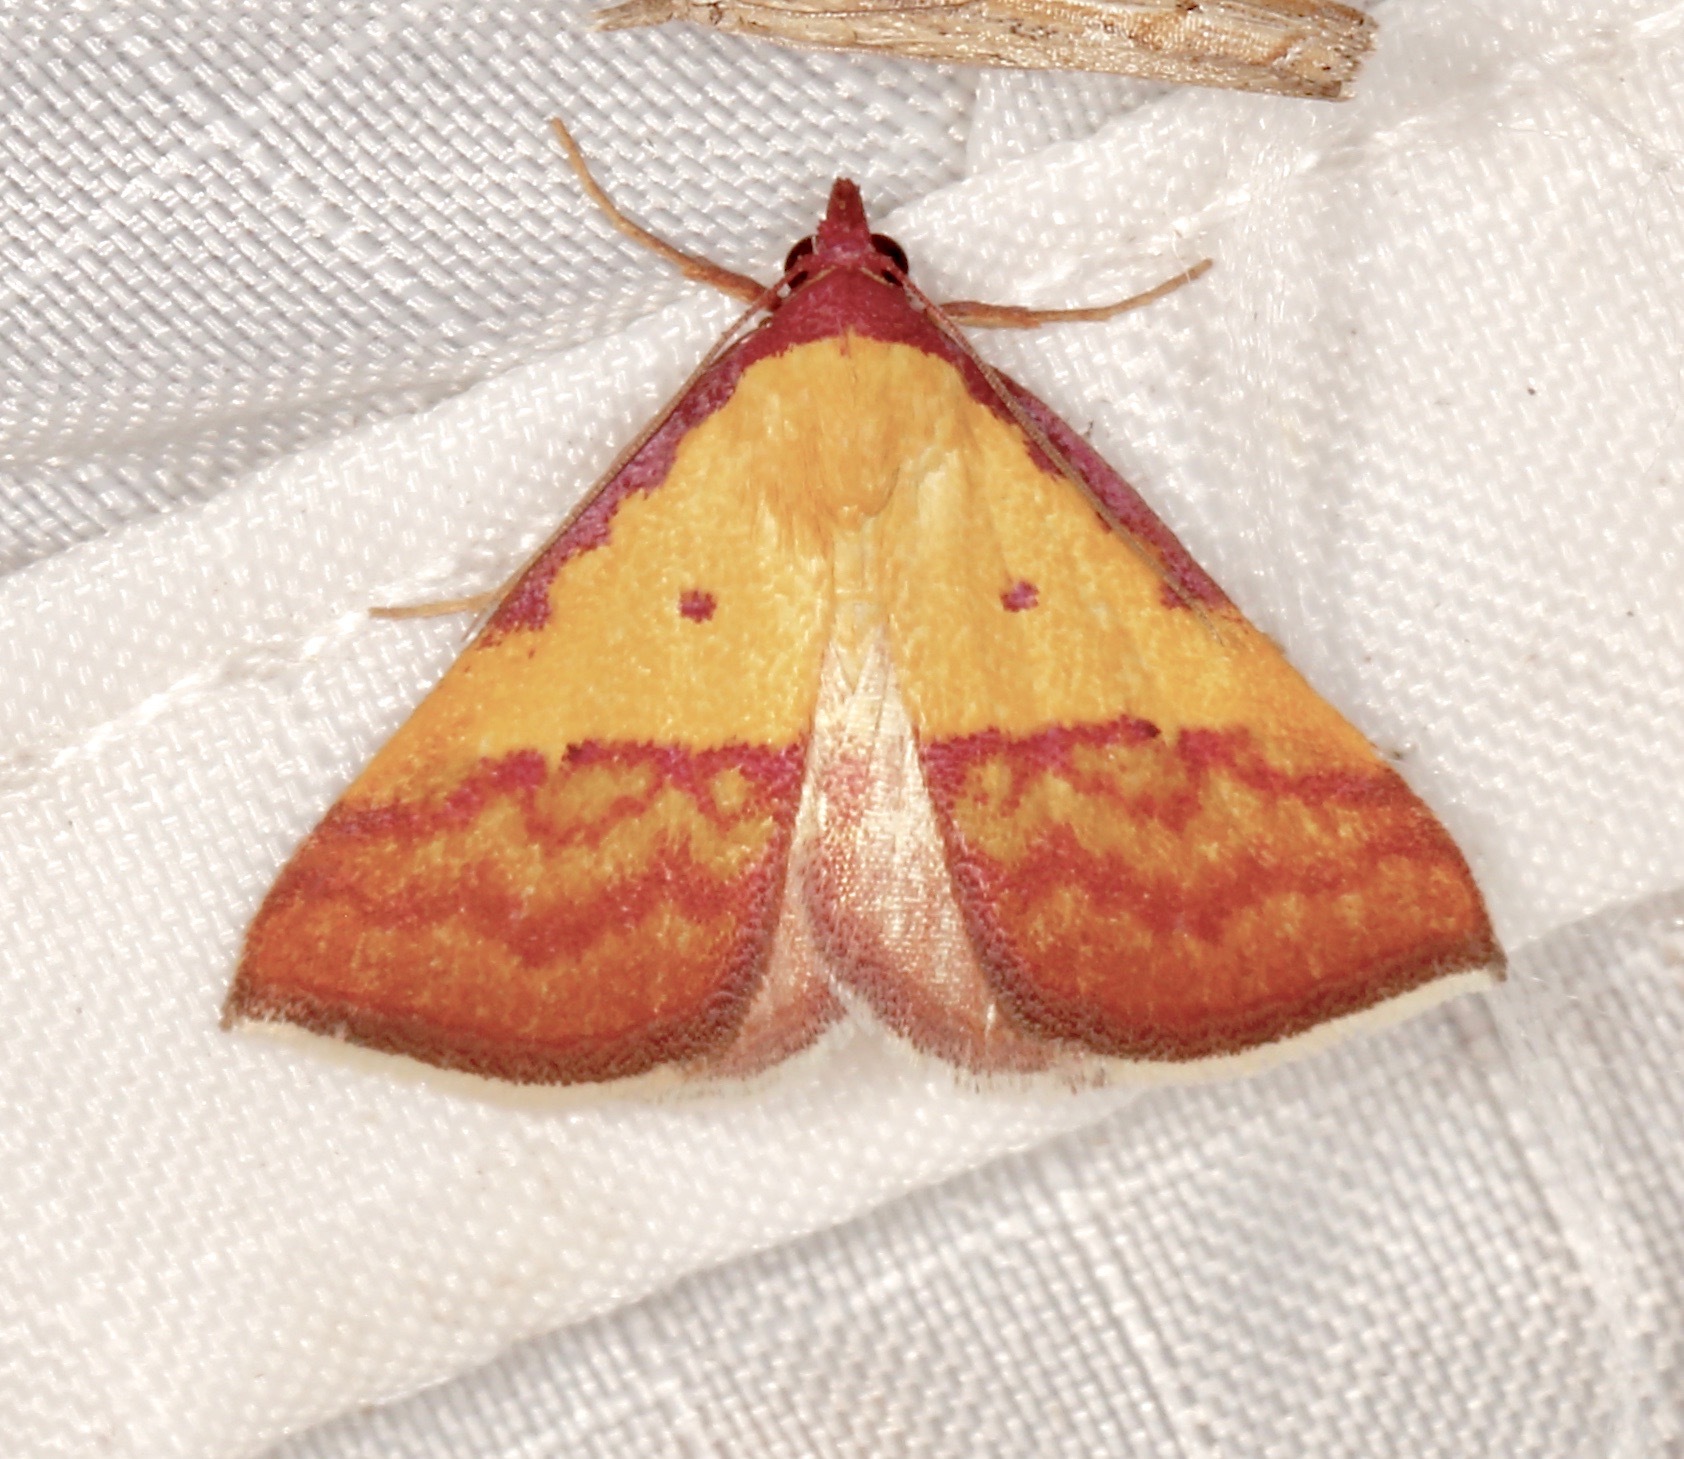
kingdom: Animalia
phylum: Arthropoda
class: Insecta
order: Lepidoptera
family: Erebidae
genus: Phytometra
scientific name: Phytometra rhodarialis
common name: Pink-bordered yellow
